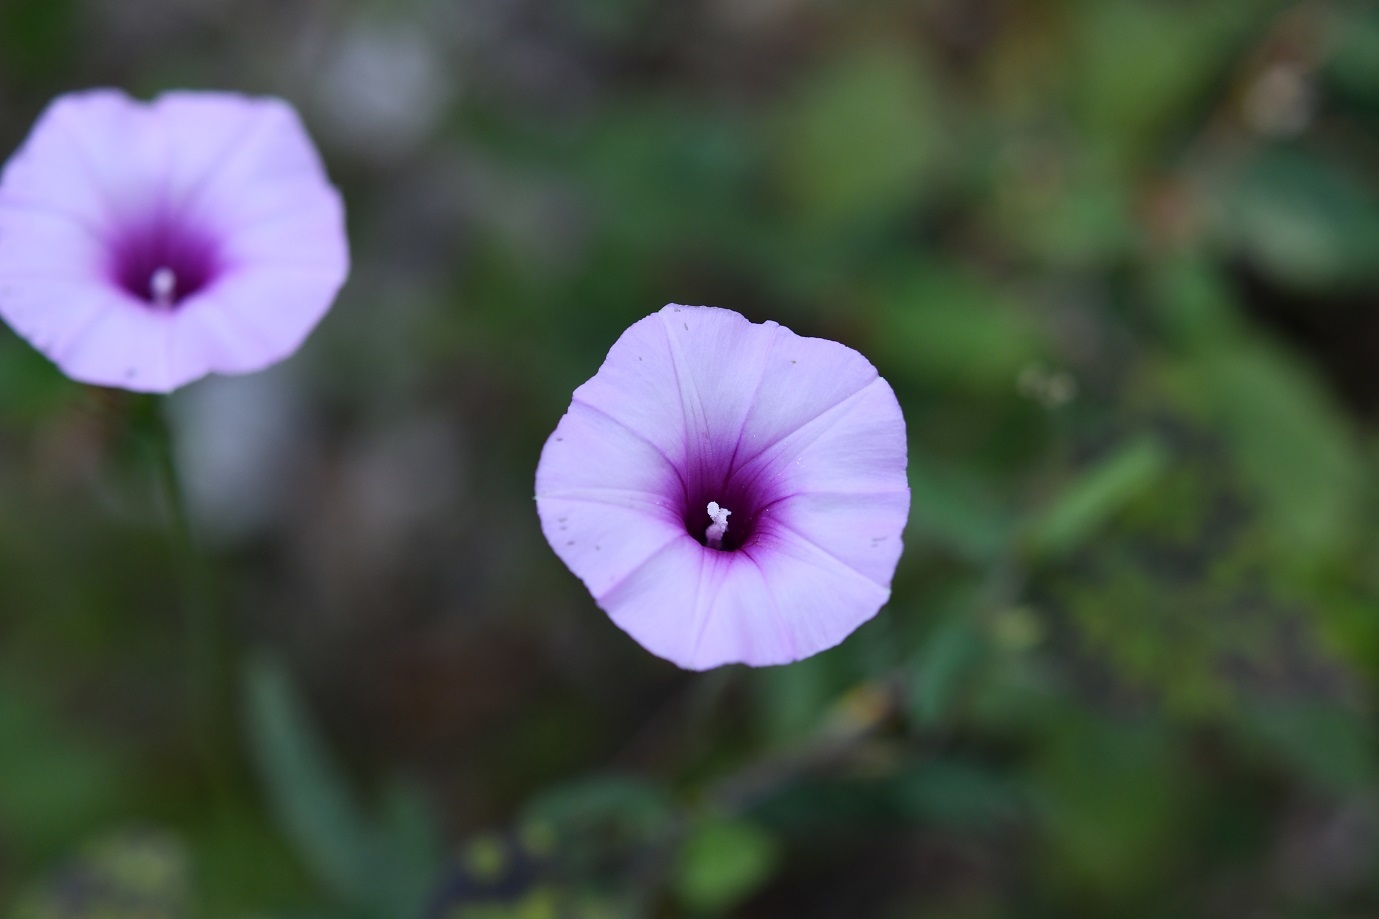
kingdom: Plantae
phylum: Tracheophyta
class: Magnoliopsida
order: Solanales
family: Convolvulaceae
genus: Ipomoea
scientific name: Ipomoea trifida
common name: Cotton morningglory
